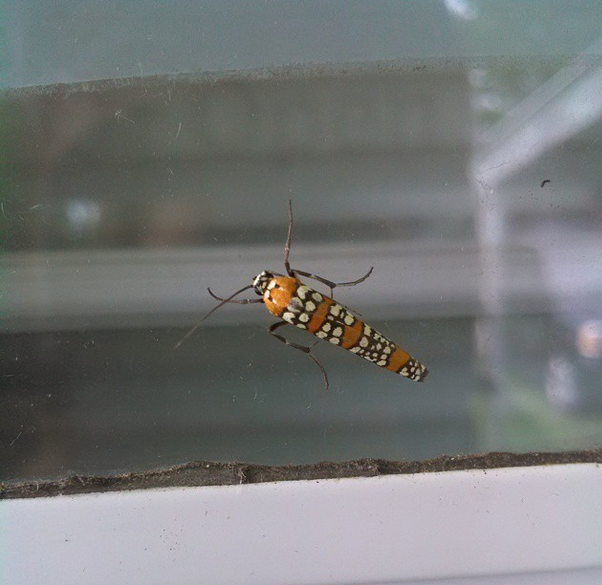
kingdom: Animalia
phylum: Arthropoda
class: Insecta
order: Lepidoptera
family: Attevidae
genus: Atteva
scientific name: Atteva punctella
